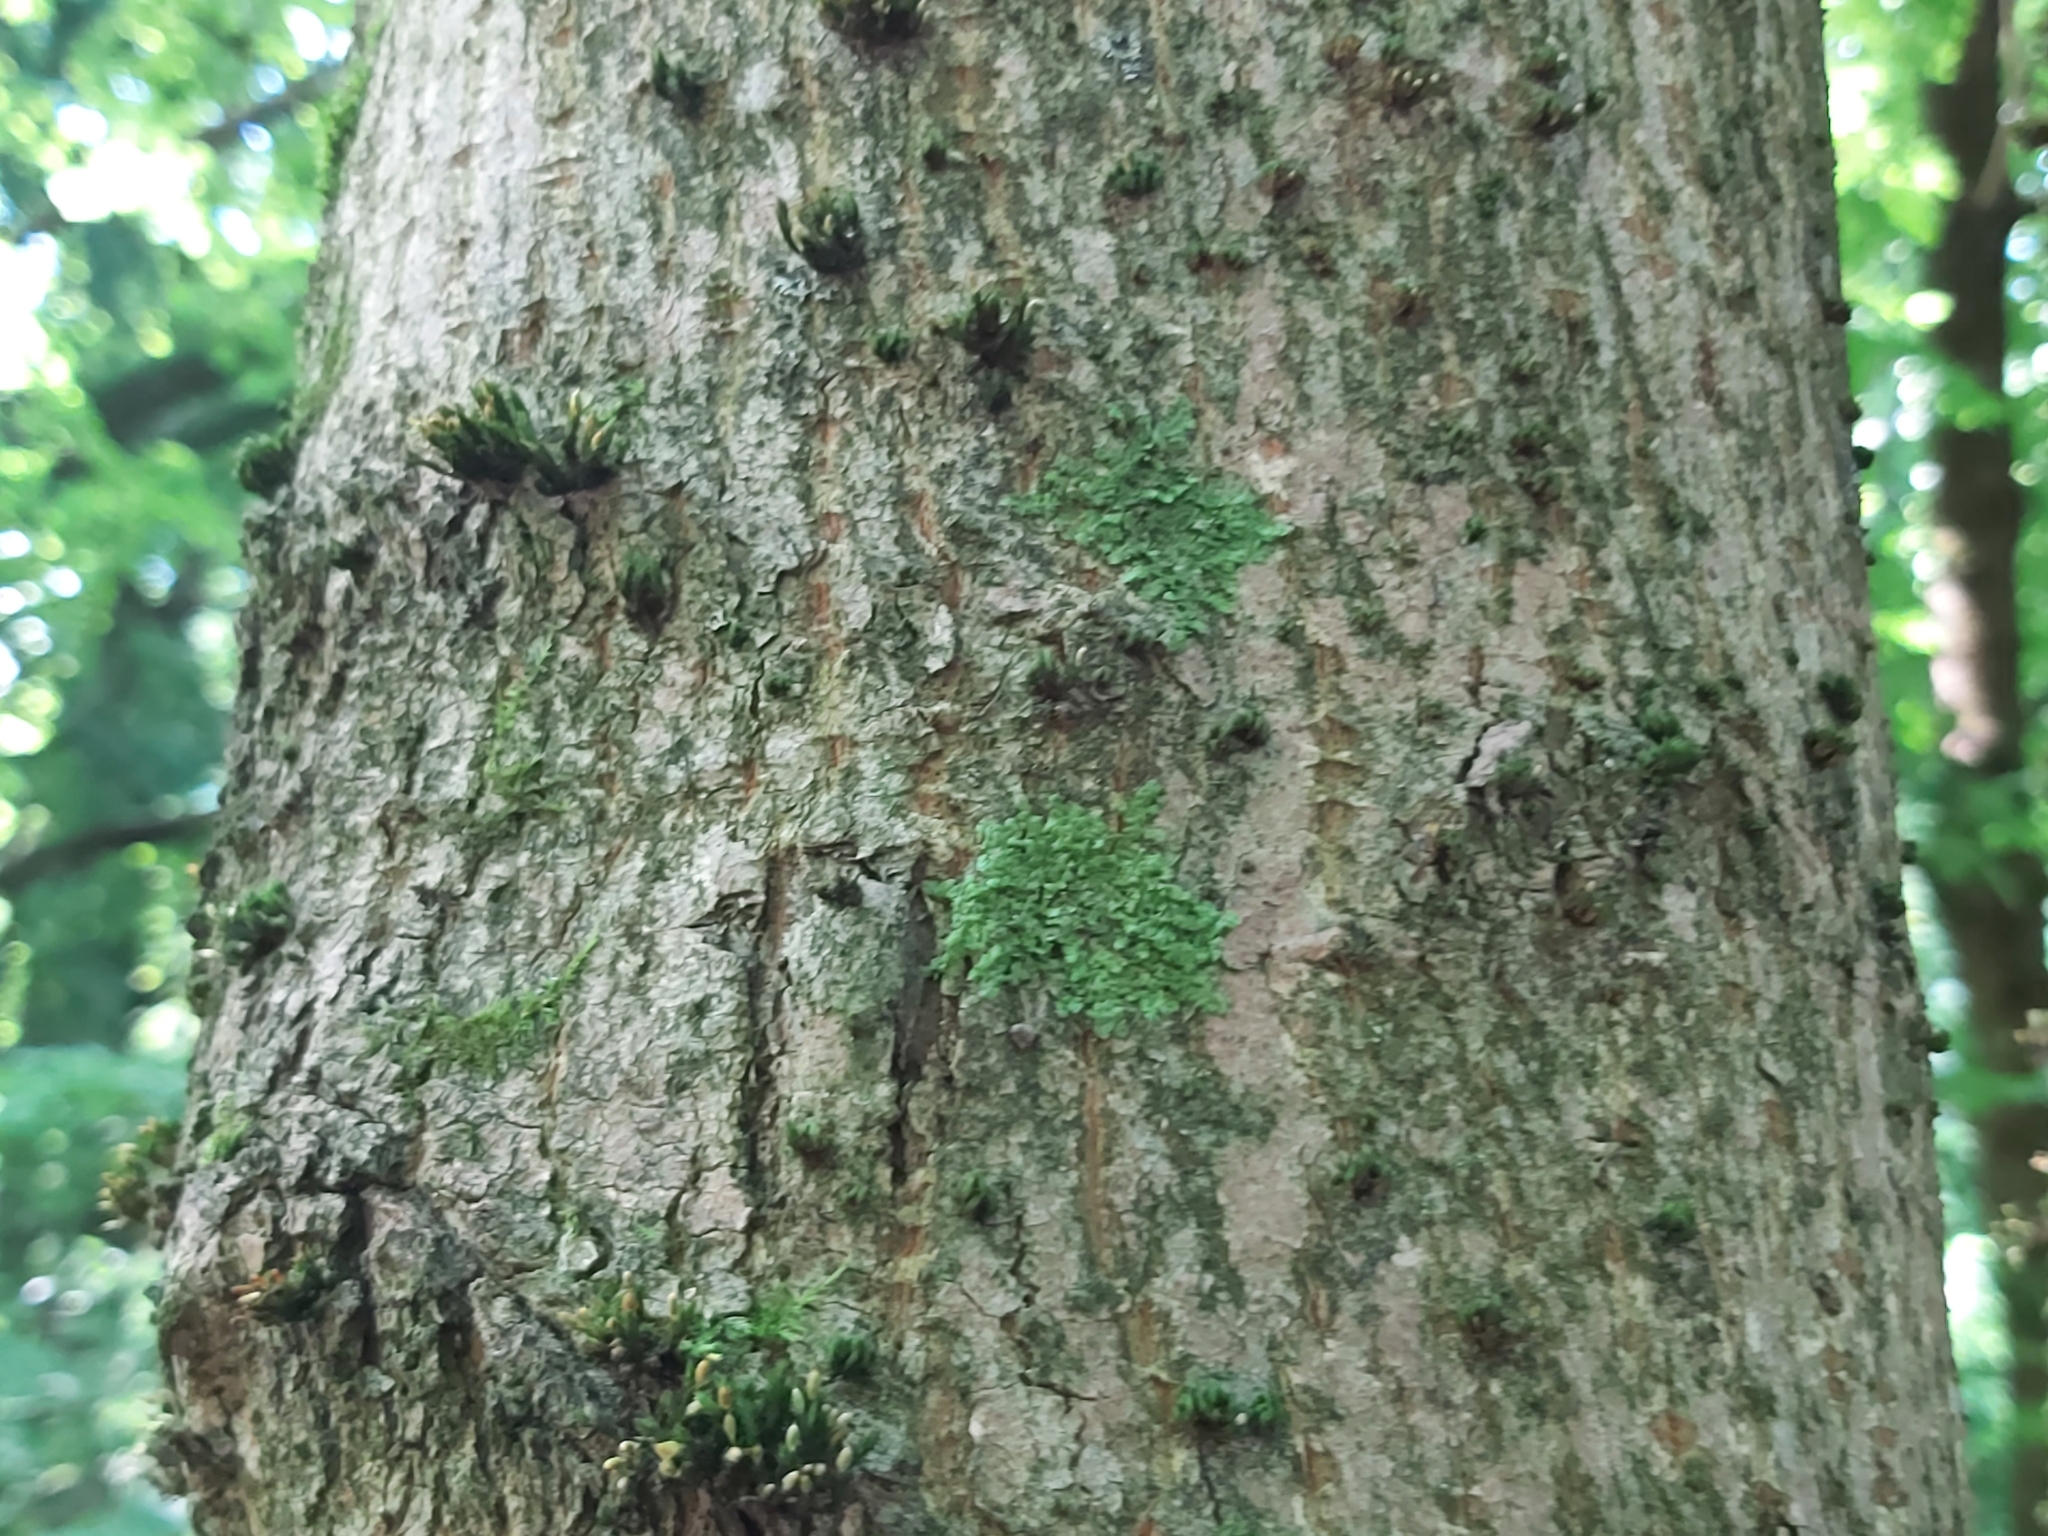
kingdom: Plantae
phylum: Marchantiophyta
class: Jungermanniopsida
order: Porellales
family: Radulaceae
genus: Radula
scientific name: Radula complanata
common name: Flat-leaved scalewort
